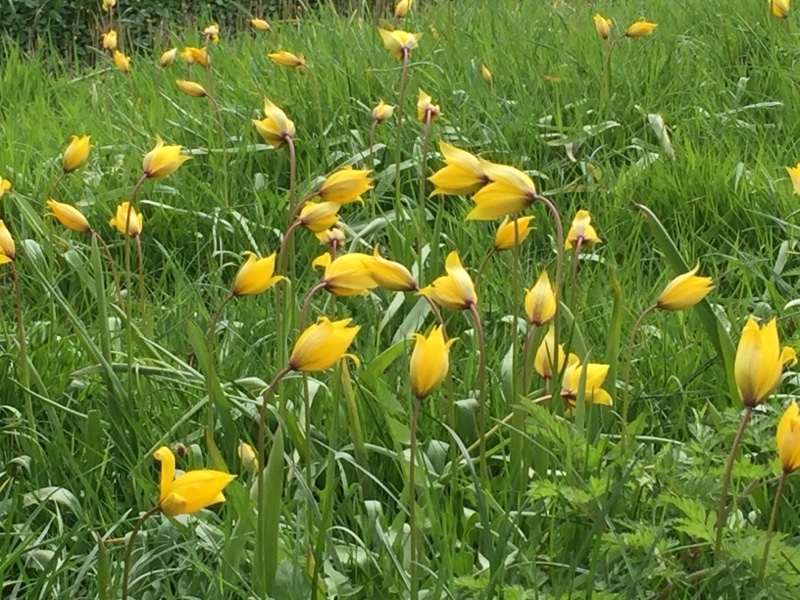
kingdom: Plantae
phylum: Tracheophyta
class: Liliopsida
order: Liliales
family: Liliaceae
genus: Tulipa
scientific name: Tulipa sylvestris
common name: Wild tulip
